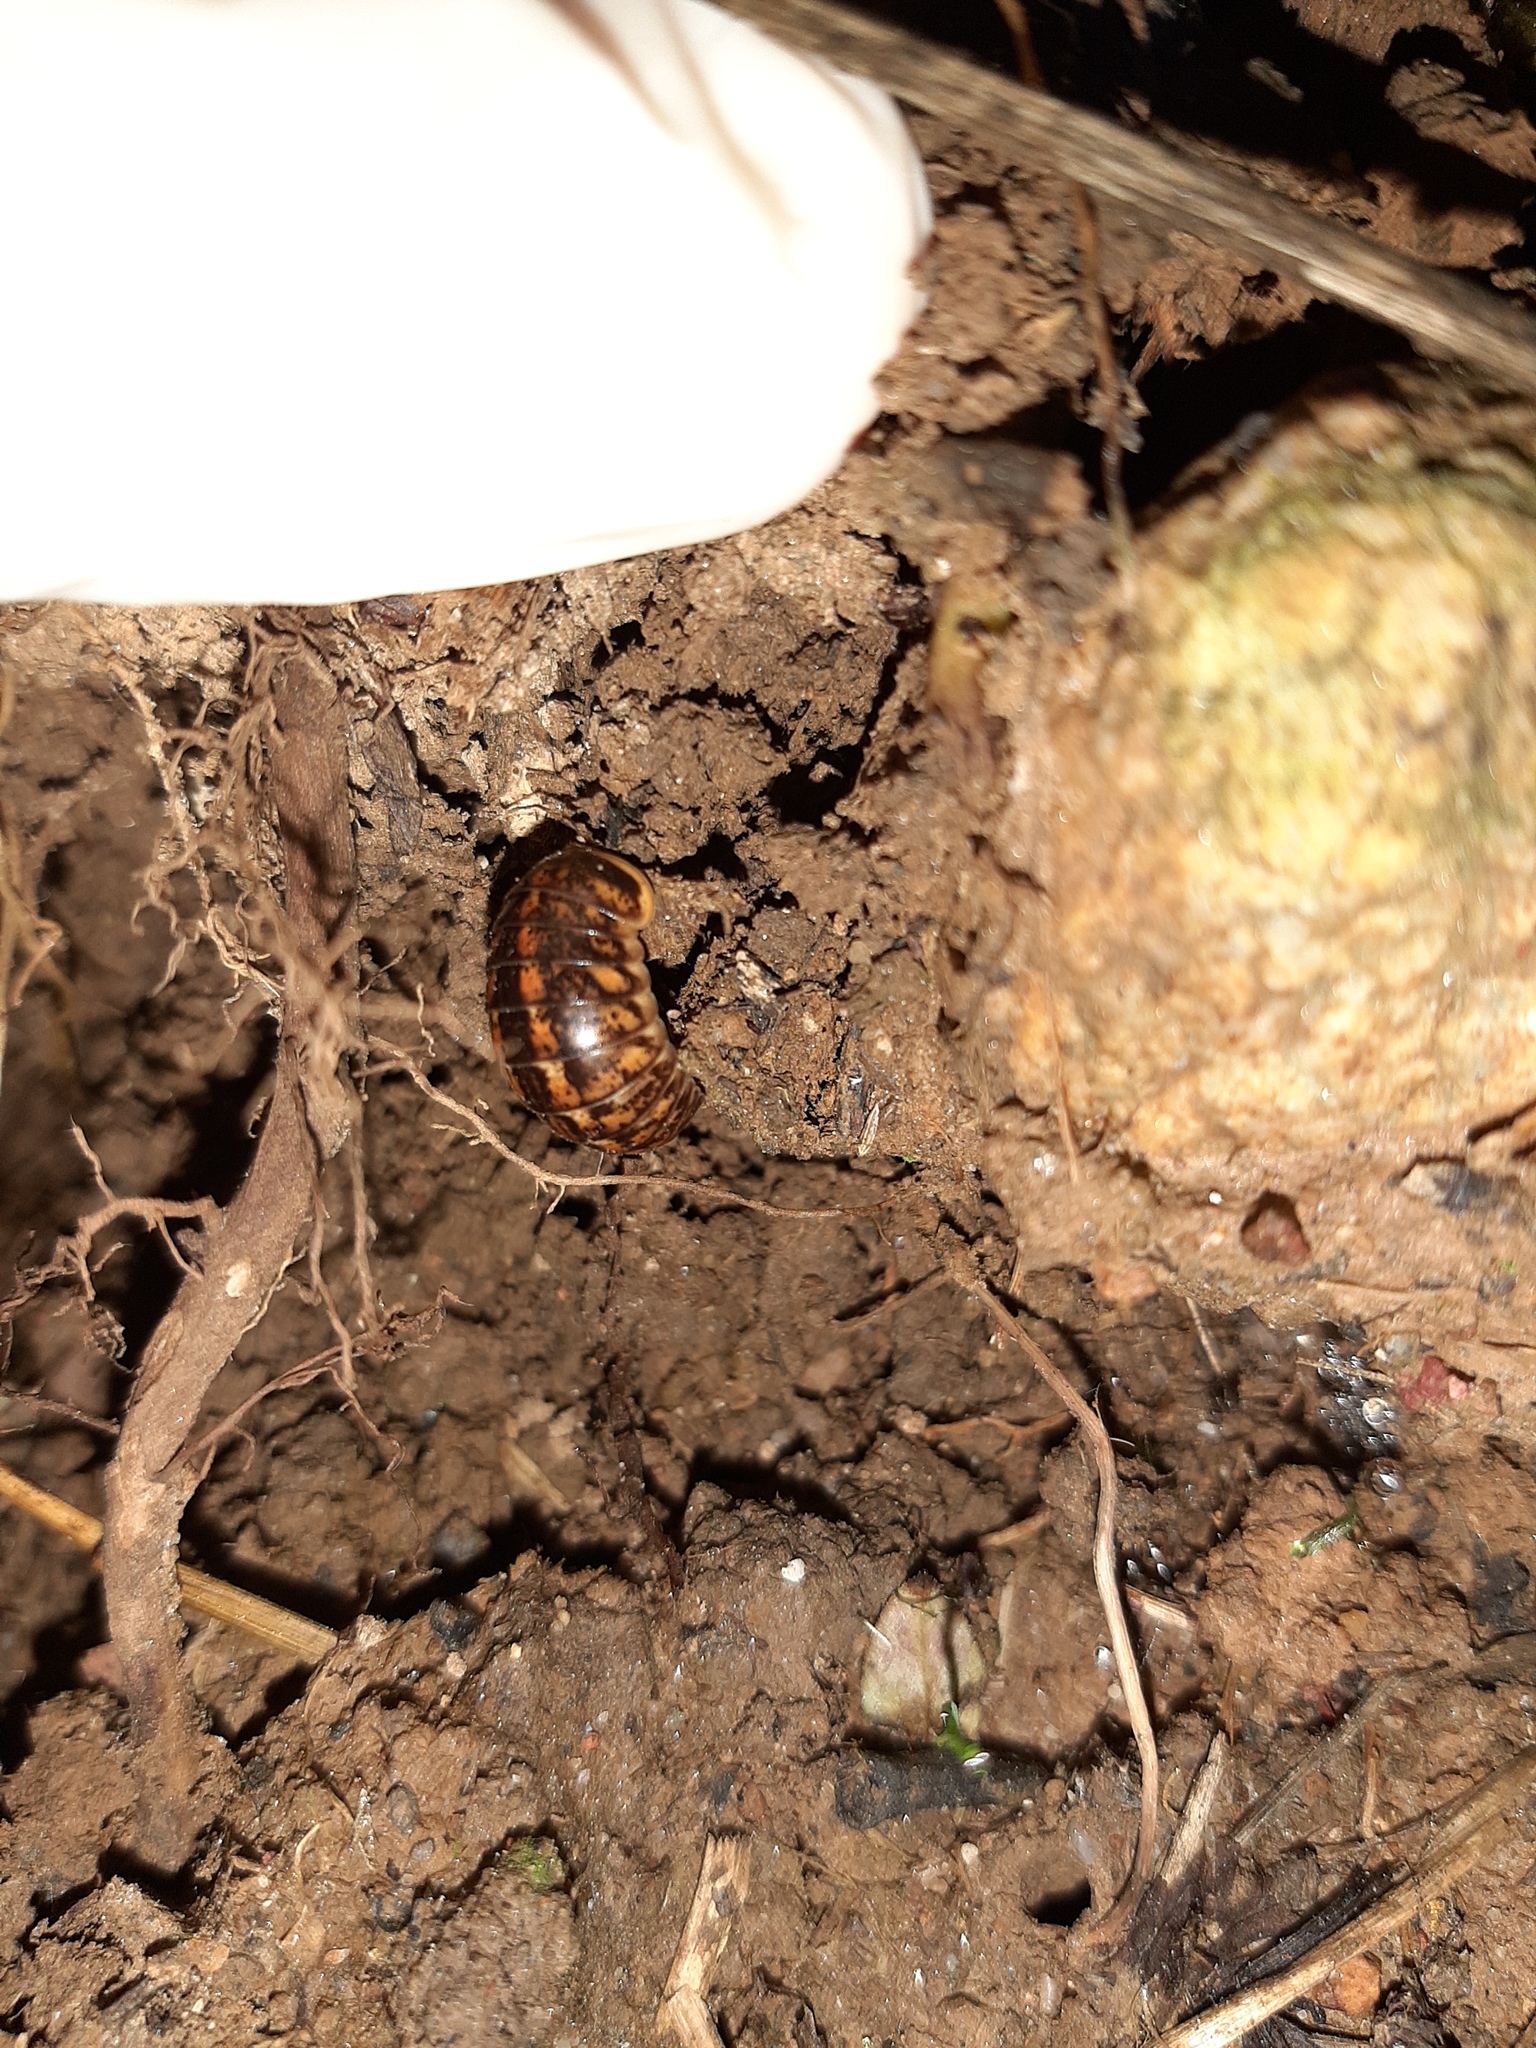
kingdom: Animalia
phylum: Arthropoda
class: Diplopoda
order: Glomerida
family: Glomeridae
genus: Glomeris
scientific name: Glomeris klugii
